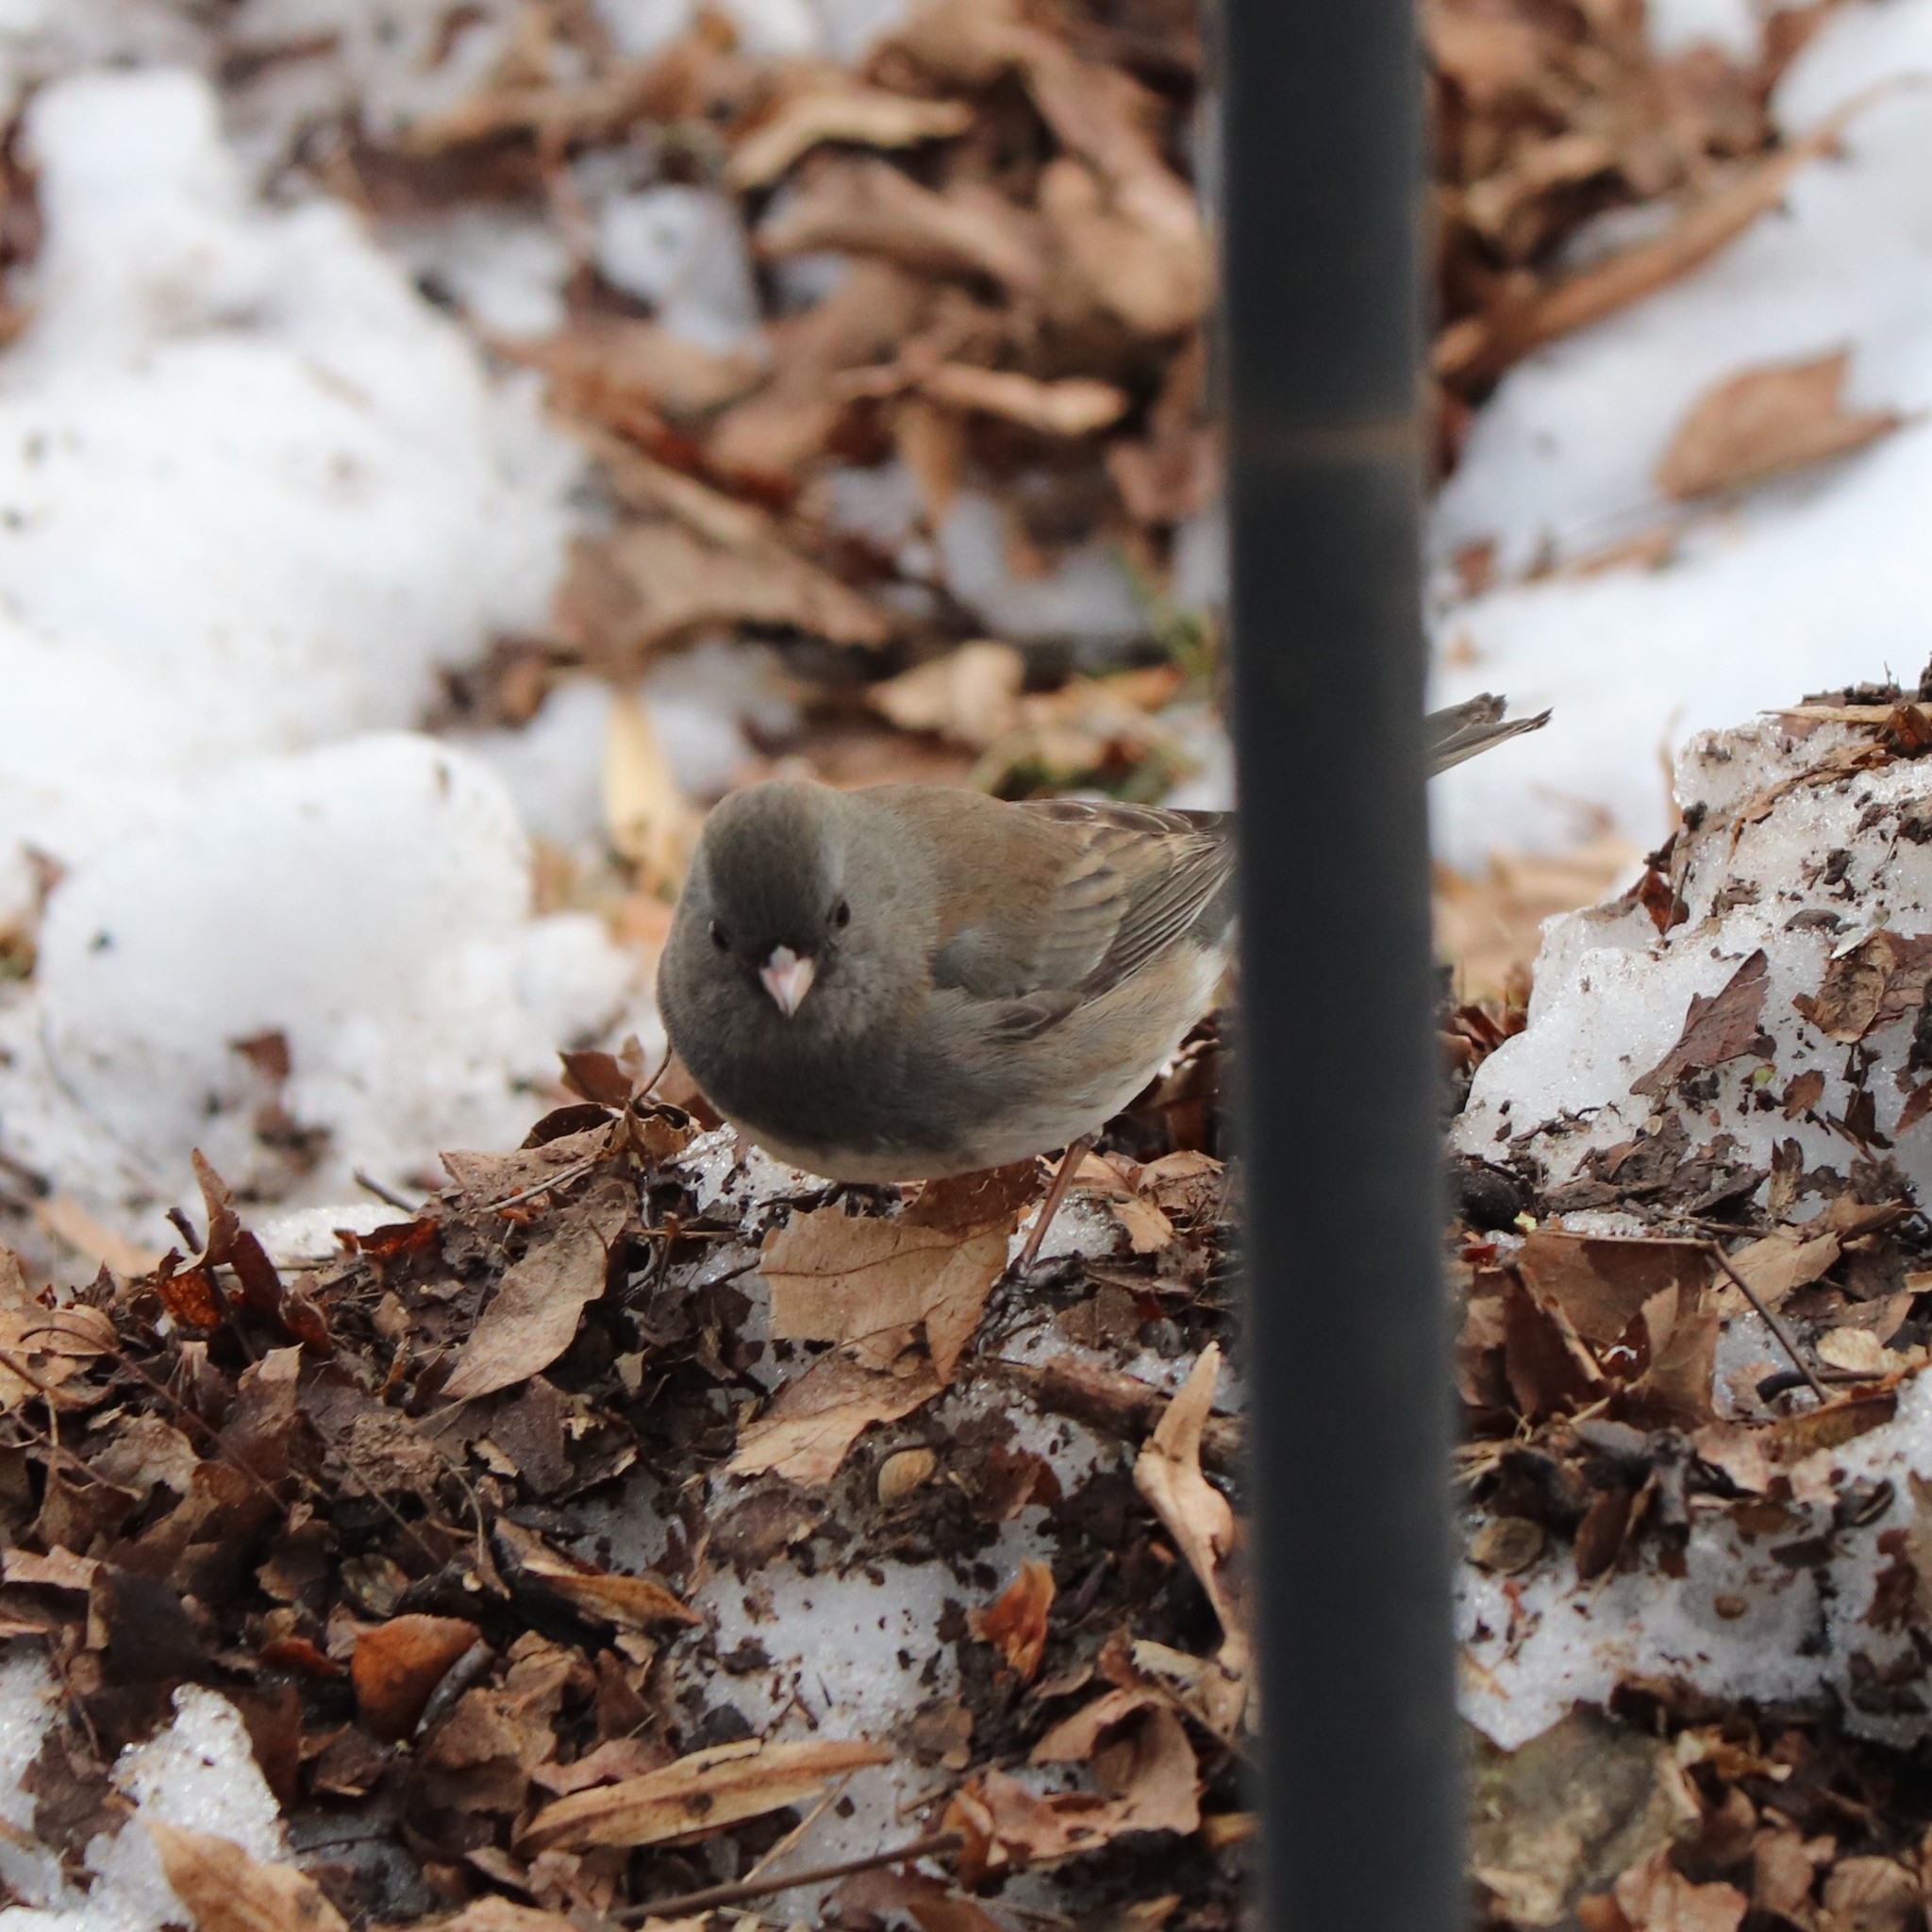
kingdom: Animalia
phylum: Chordata
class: Aves
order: Passeriformes
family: Passerellidae
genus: Junco
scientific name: Junco hyemalis
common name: Dark-eyed junco
